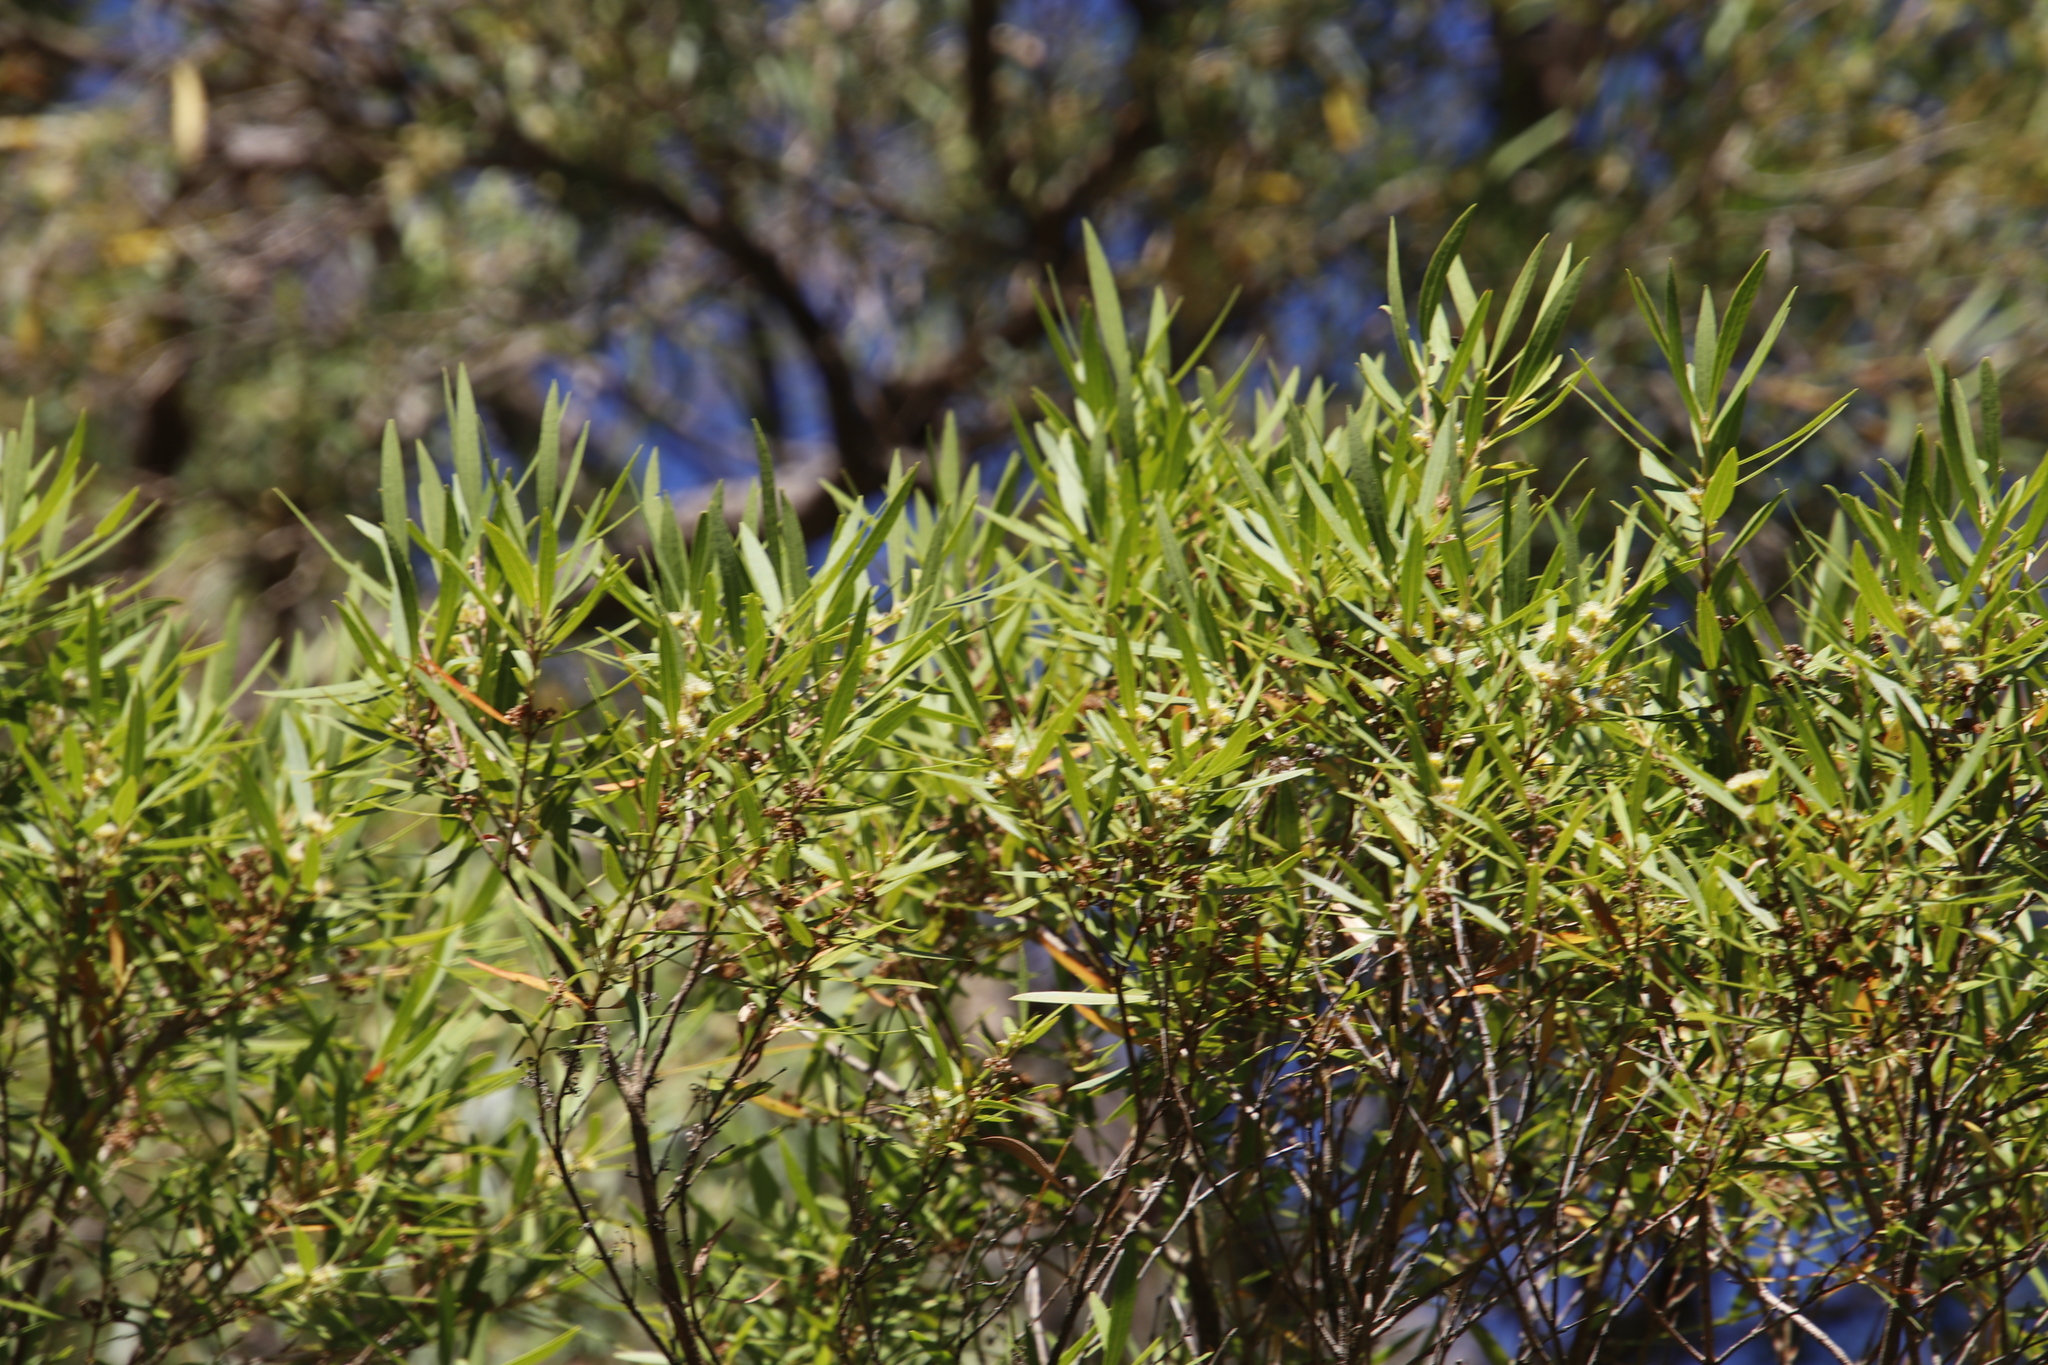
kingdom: Plantae
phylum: Tracheophyta
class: Magnoliopsida
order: Myrtales
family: Myrtaceae
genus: Callistemon
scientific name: Callistemon lanceolatus
